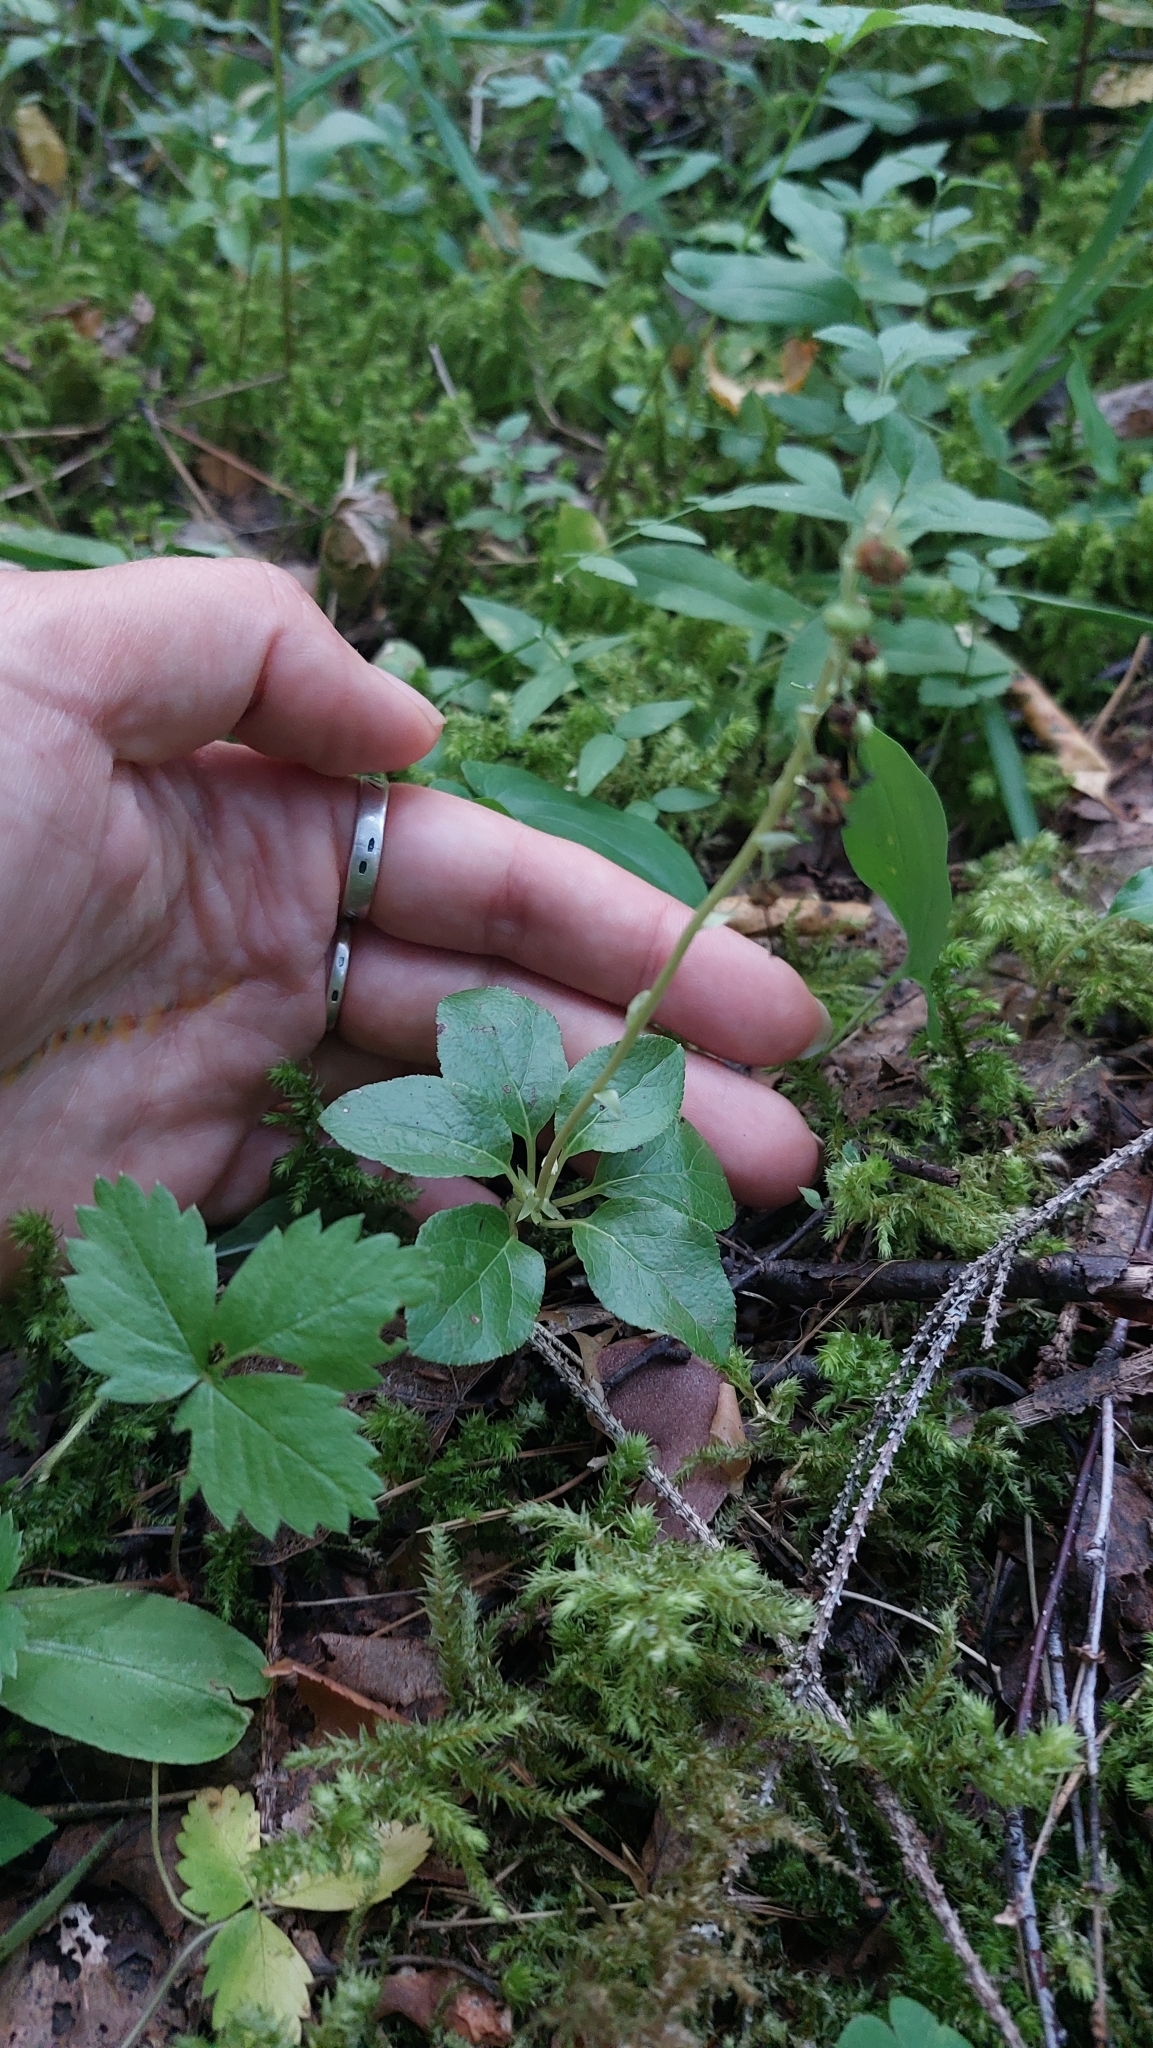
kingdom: Plantae
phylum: Tracheophyta
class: Magnoliopsida
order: Ericales
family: Ericaceae
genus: Orthilia
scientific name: Orthilia secunda
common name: One-sided orthilia
